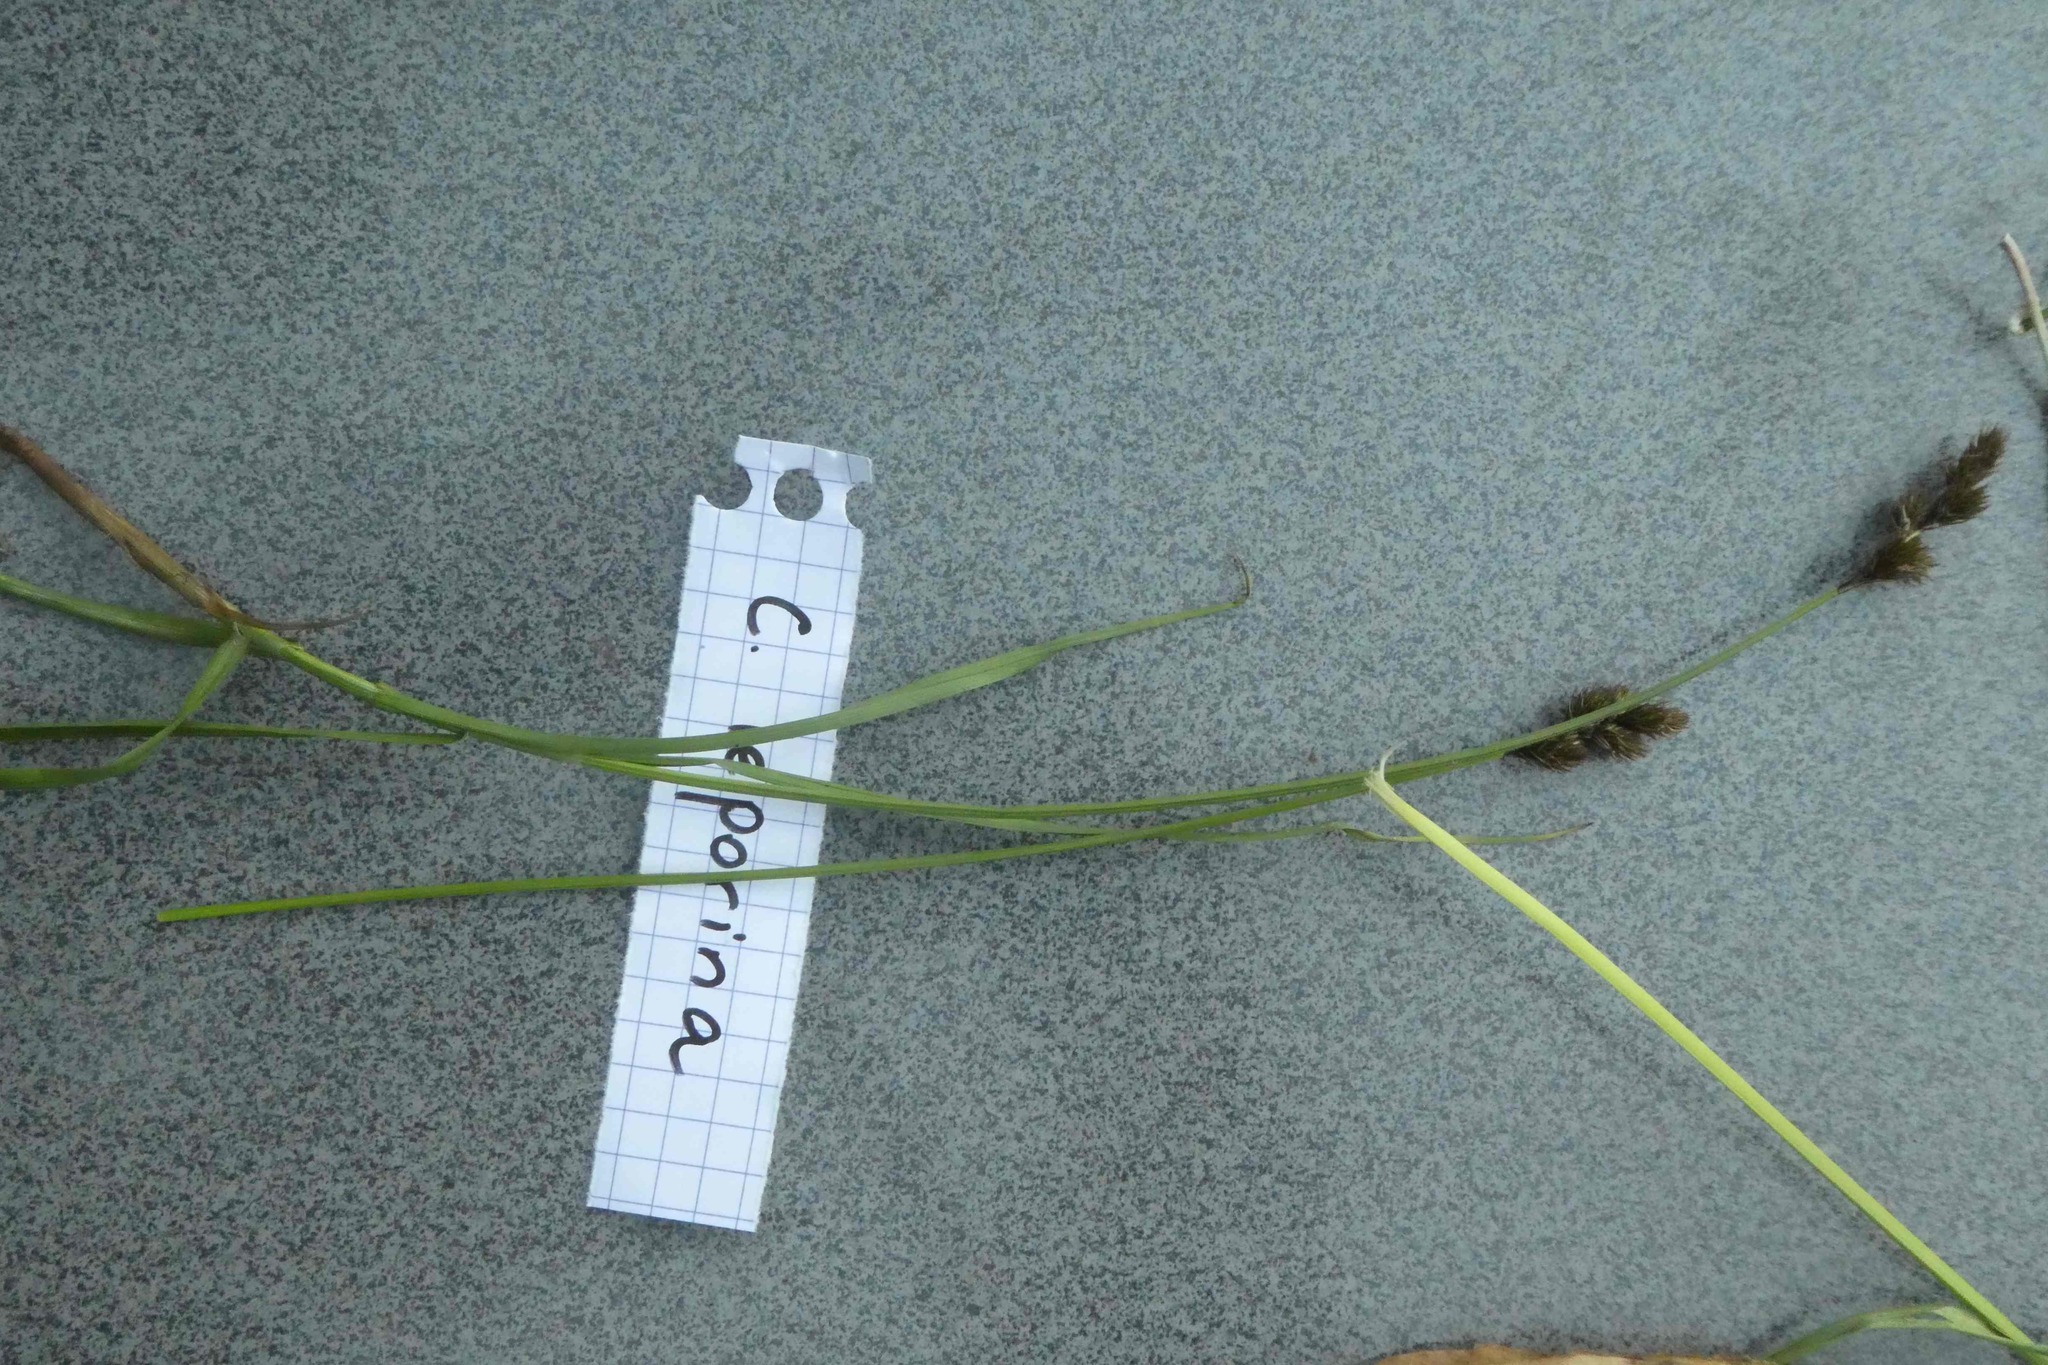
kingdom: Plantae
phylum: Tracheophyta
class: Liliopsida
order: Poales
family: Cyperaceae
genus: Carex
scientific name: Carex leporina
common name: Oval sedge
